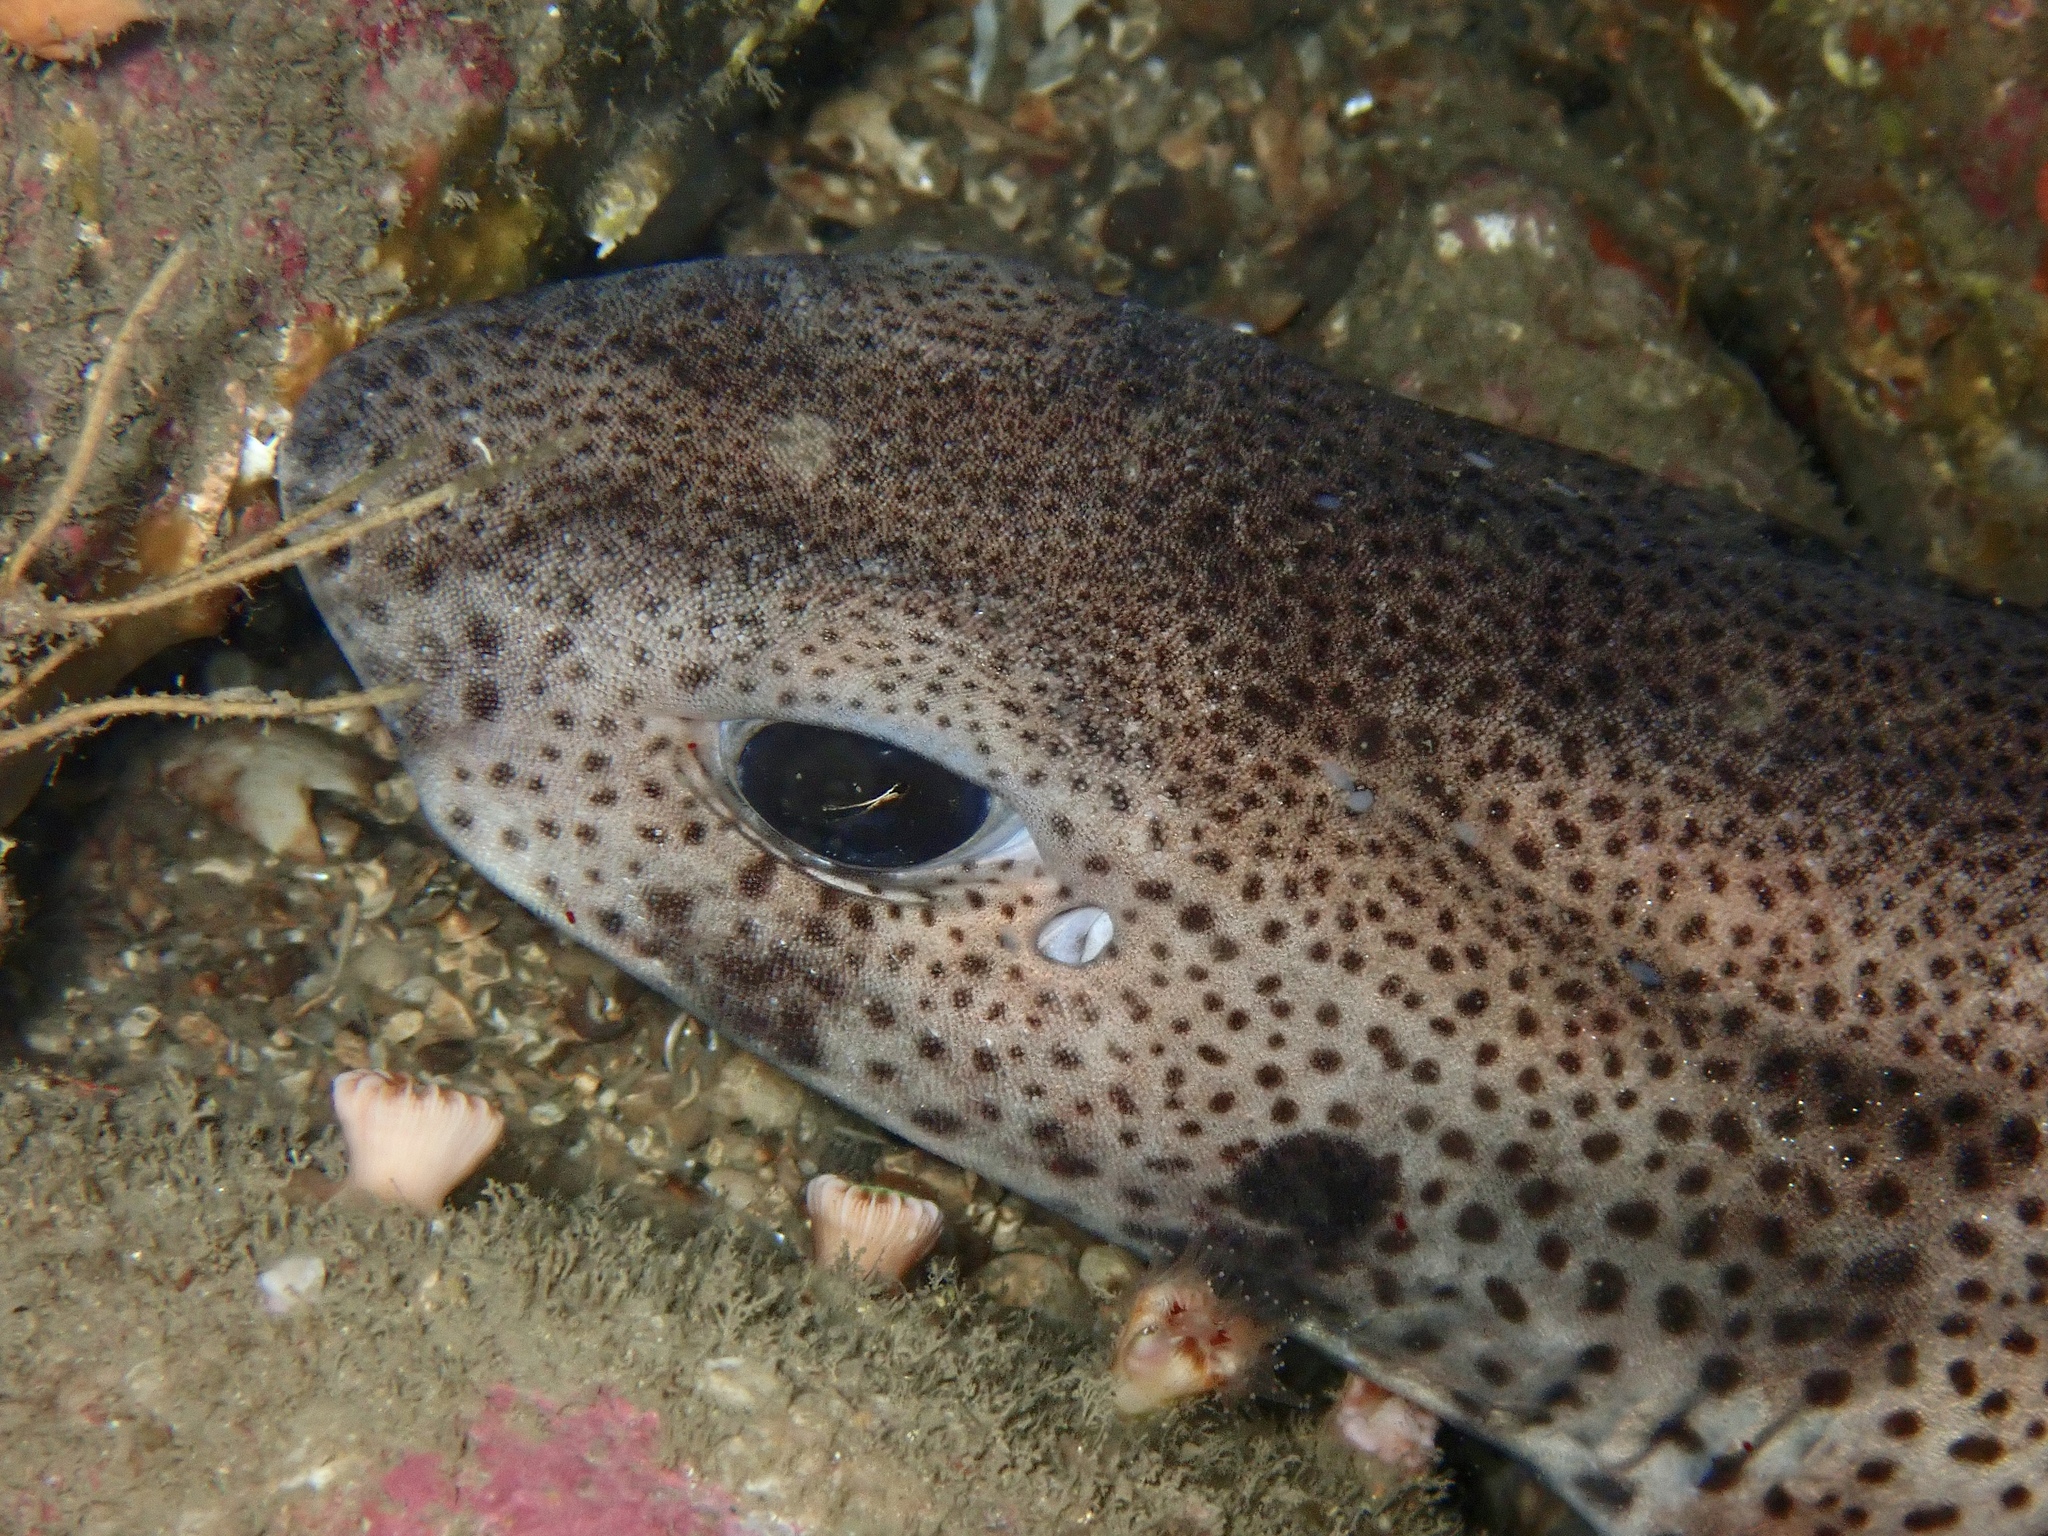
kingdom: Animalia
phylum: Chordata
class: Elasmobranchii
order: Carcharhiniformes
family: Scyliorhinidae
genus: Scyliorhinus
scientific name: Scyliorhinus canicula
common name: Lesser spotted dogfish
